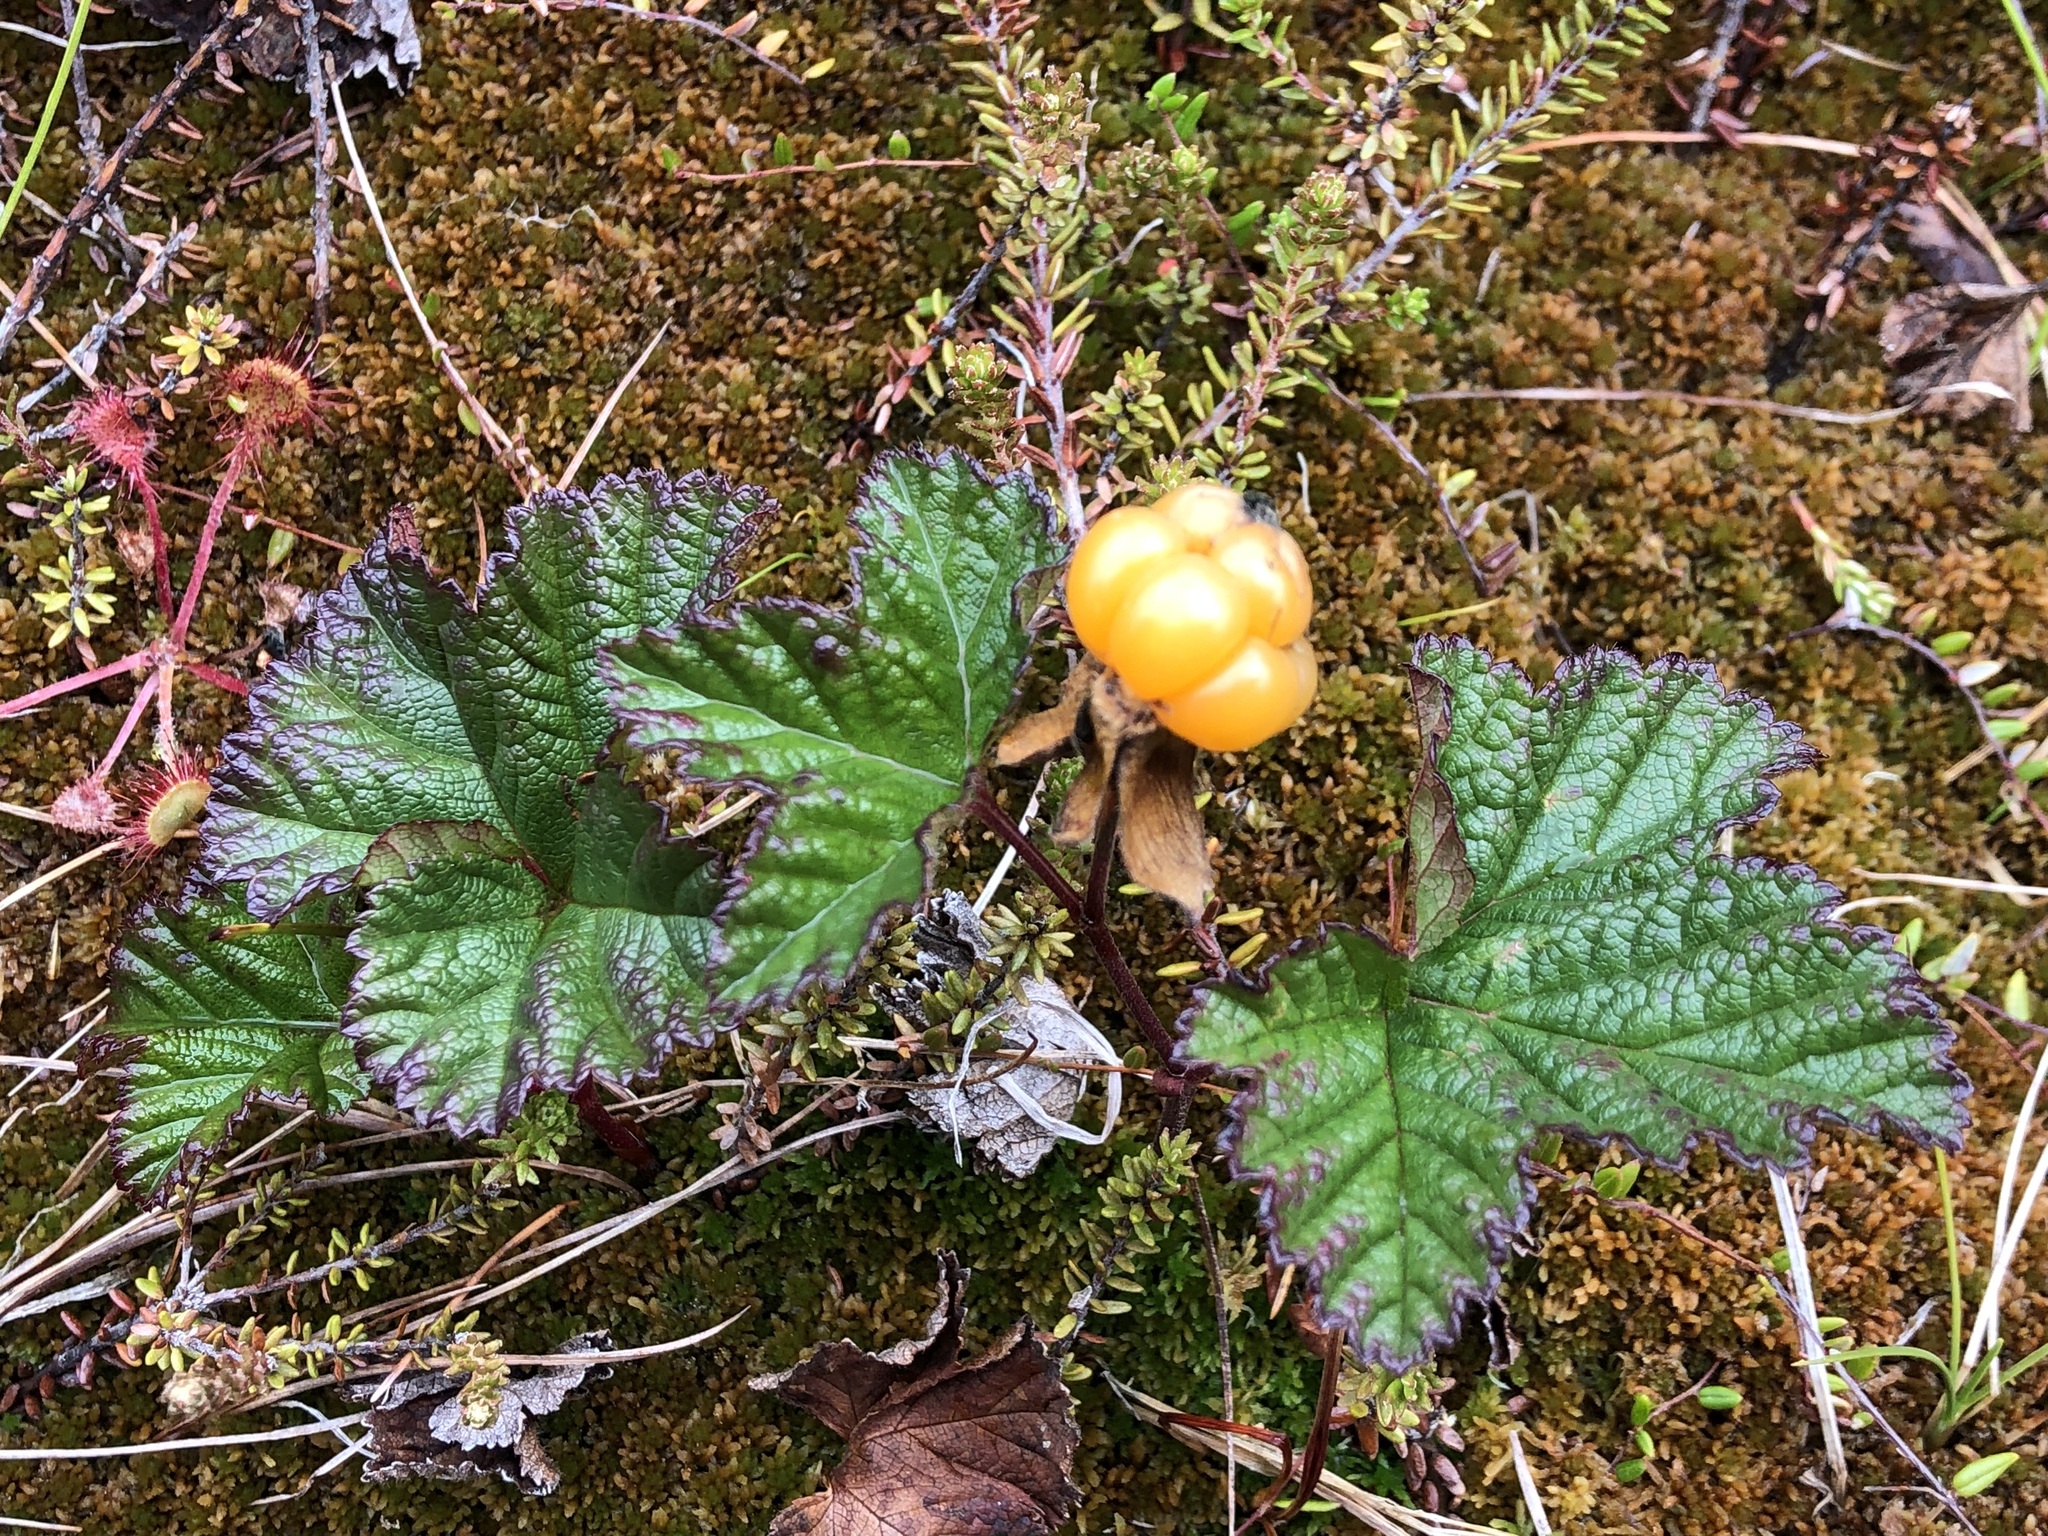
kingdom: Plantae
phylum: Tracheophyta
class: Magnoliopsida
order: Rosales
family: Rosaceae
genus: Rubus
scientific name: Rubus chamaemorus
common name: Cloudberry
